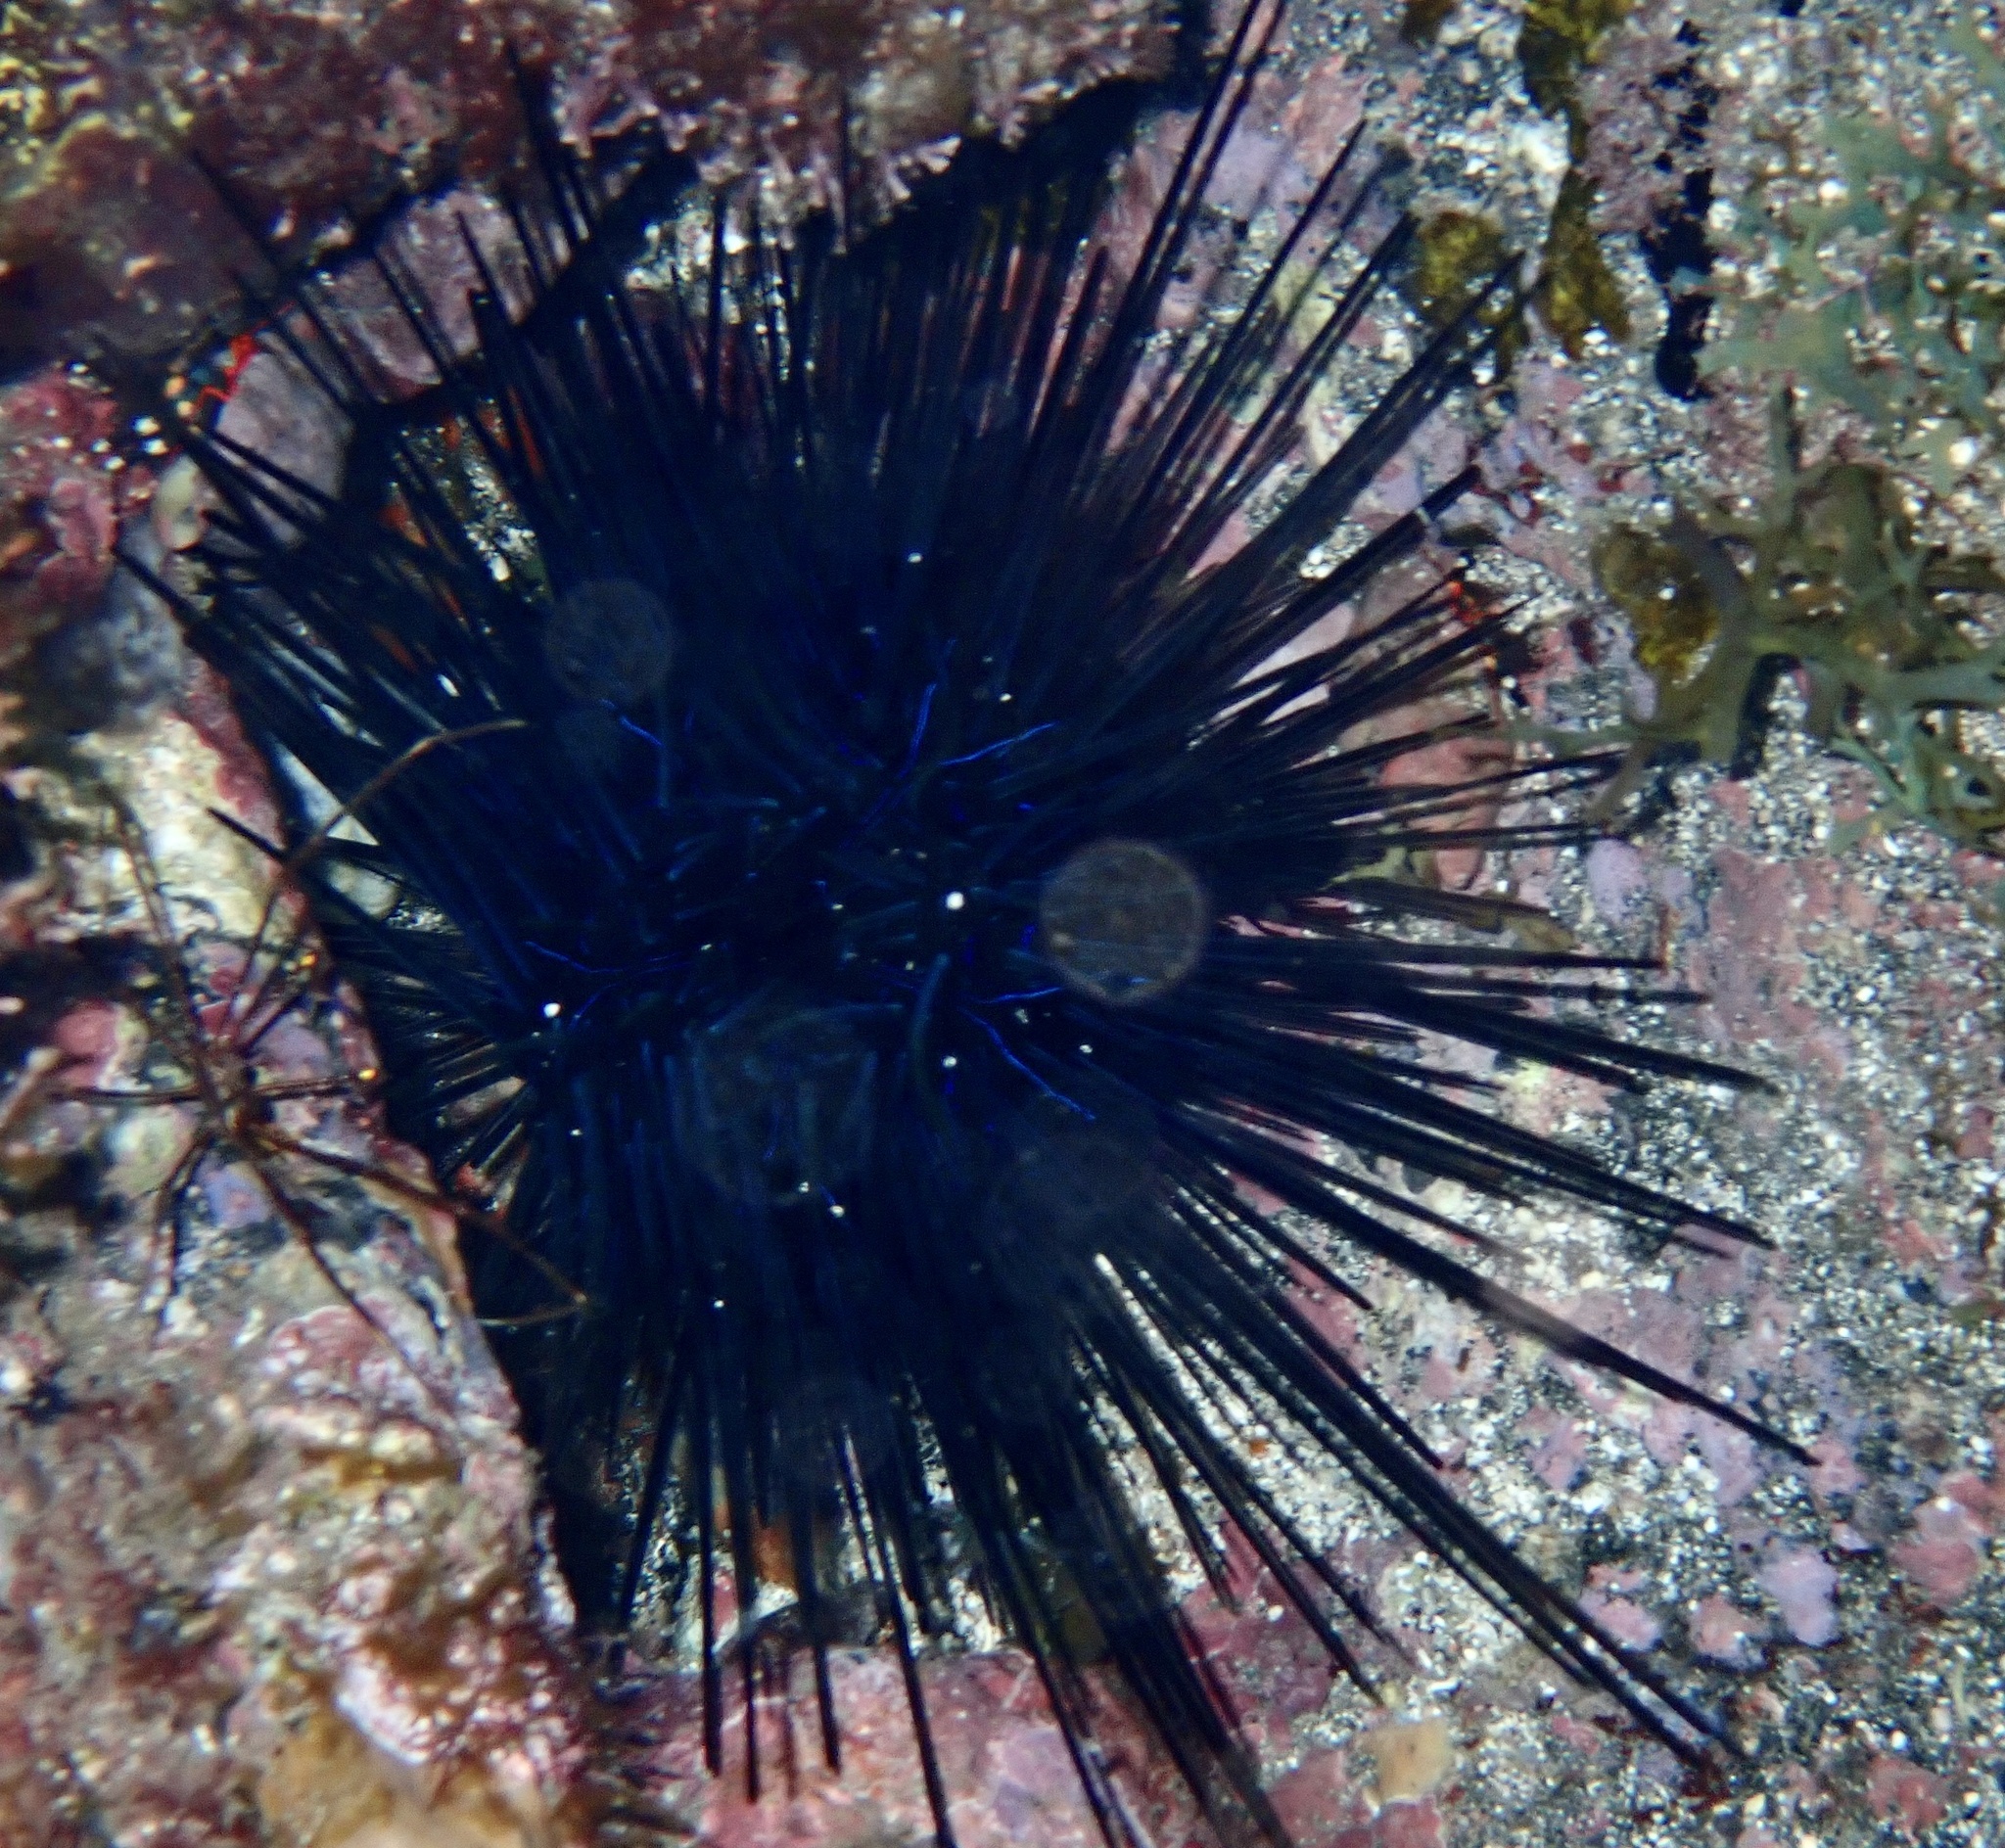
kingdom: Animalia
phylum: Echinodermata
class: Echinoidea
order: Diadematoida
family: Diadematidae
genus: Diadema
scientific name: Diadema africanum
